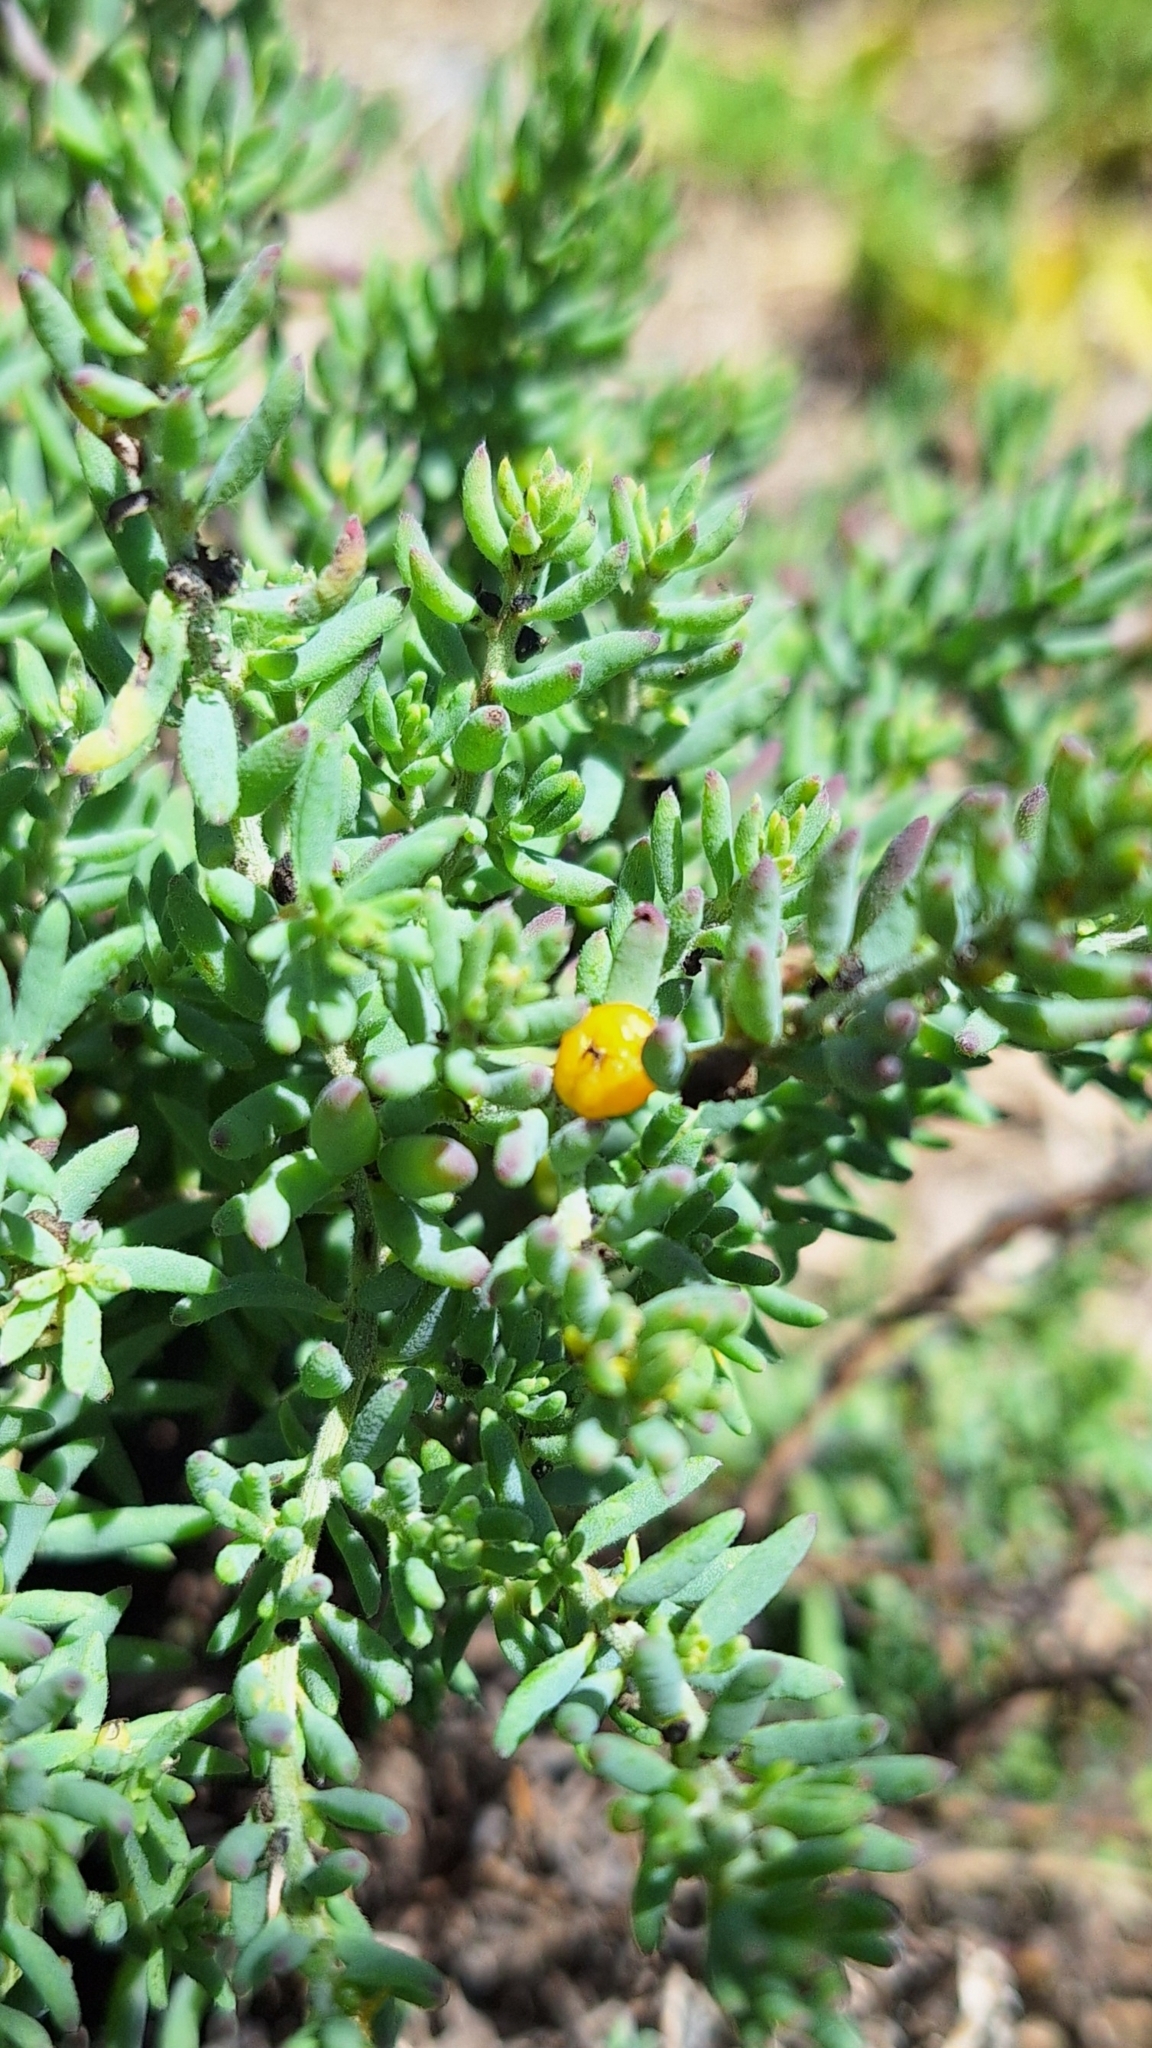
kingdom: Plantae
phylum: Tracheophyta
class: Magnoliopsida
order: Caryophyllales
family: Amaranthaceae
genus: Enchylaena
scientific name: Enchylaena tomentosa
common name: Ruby saltbush
